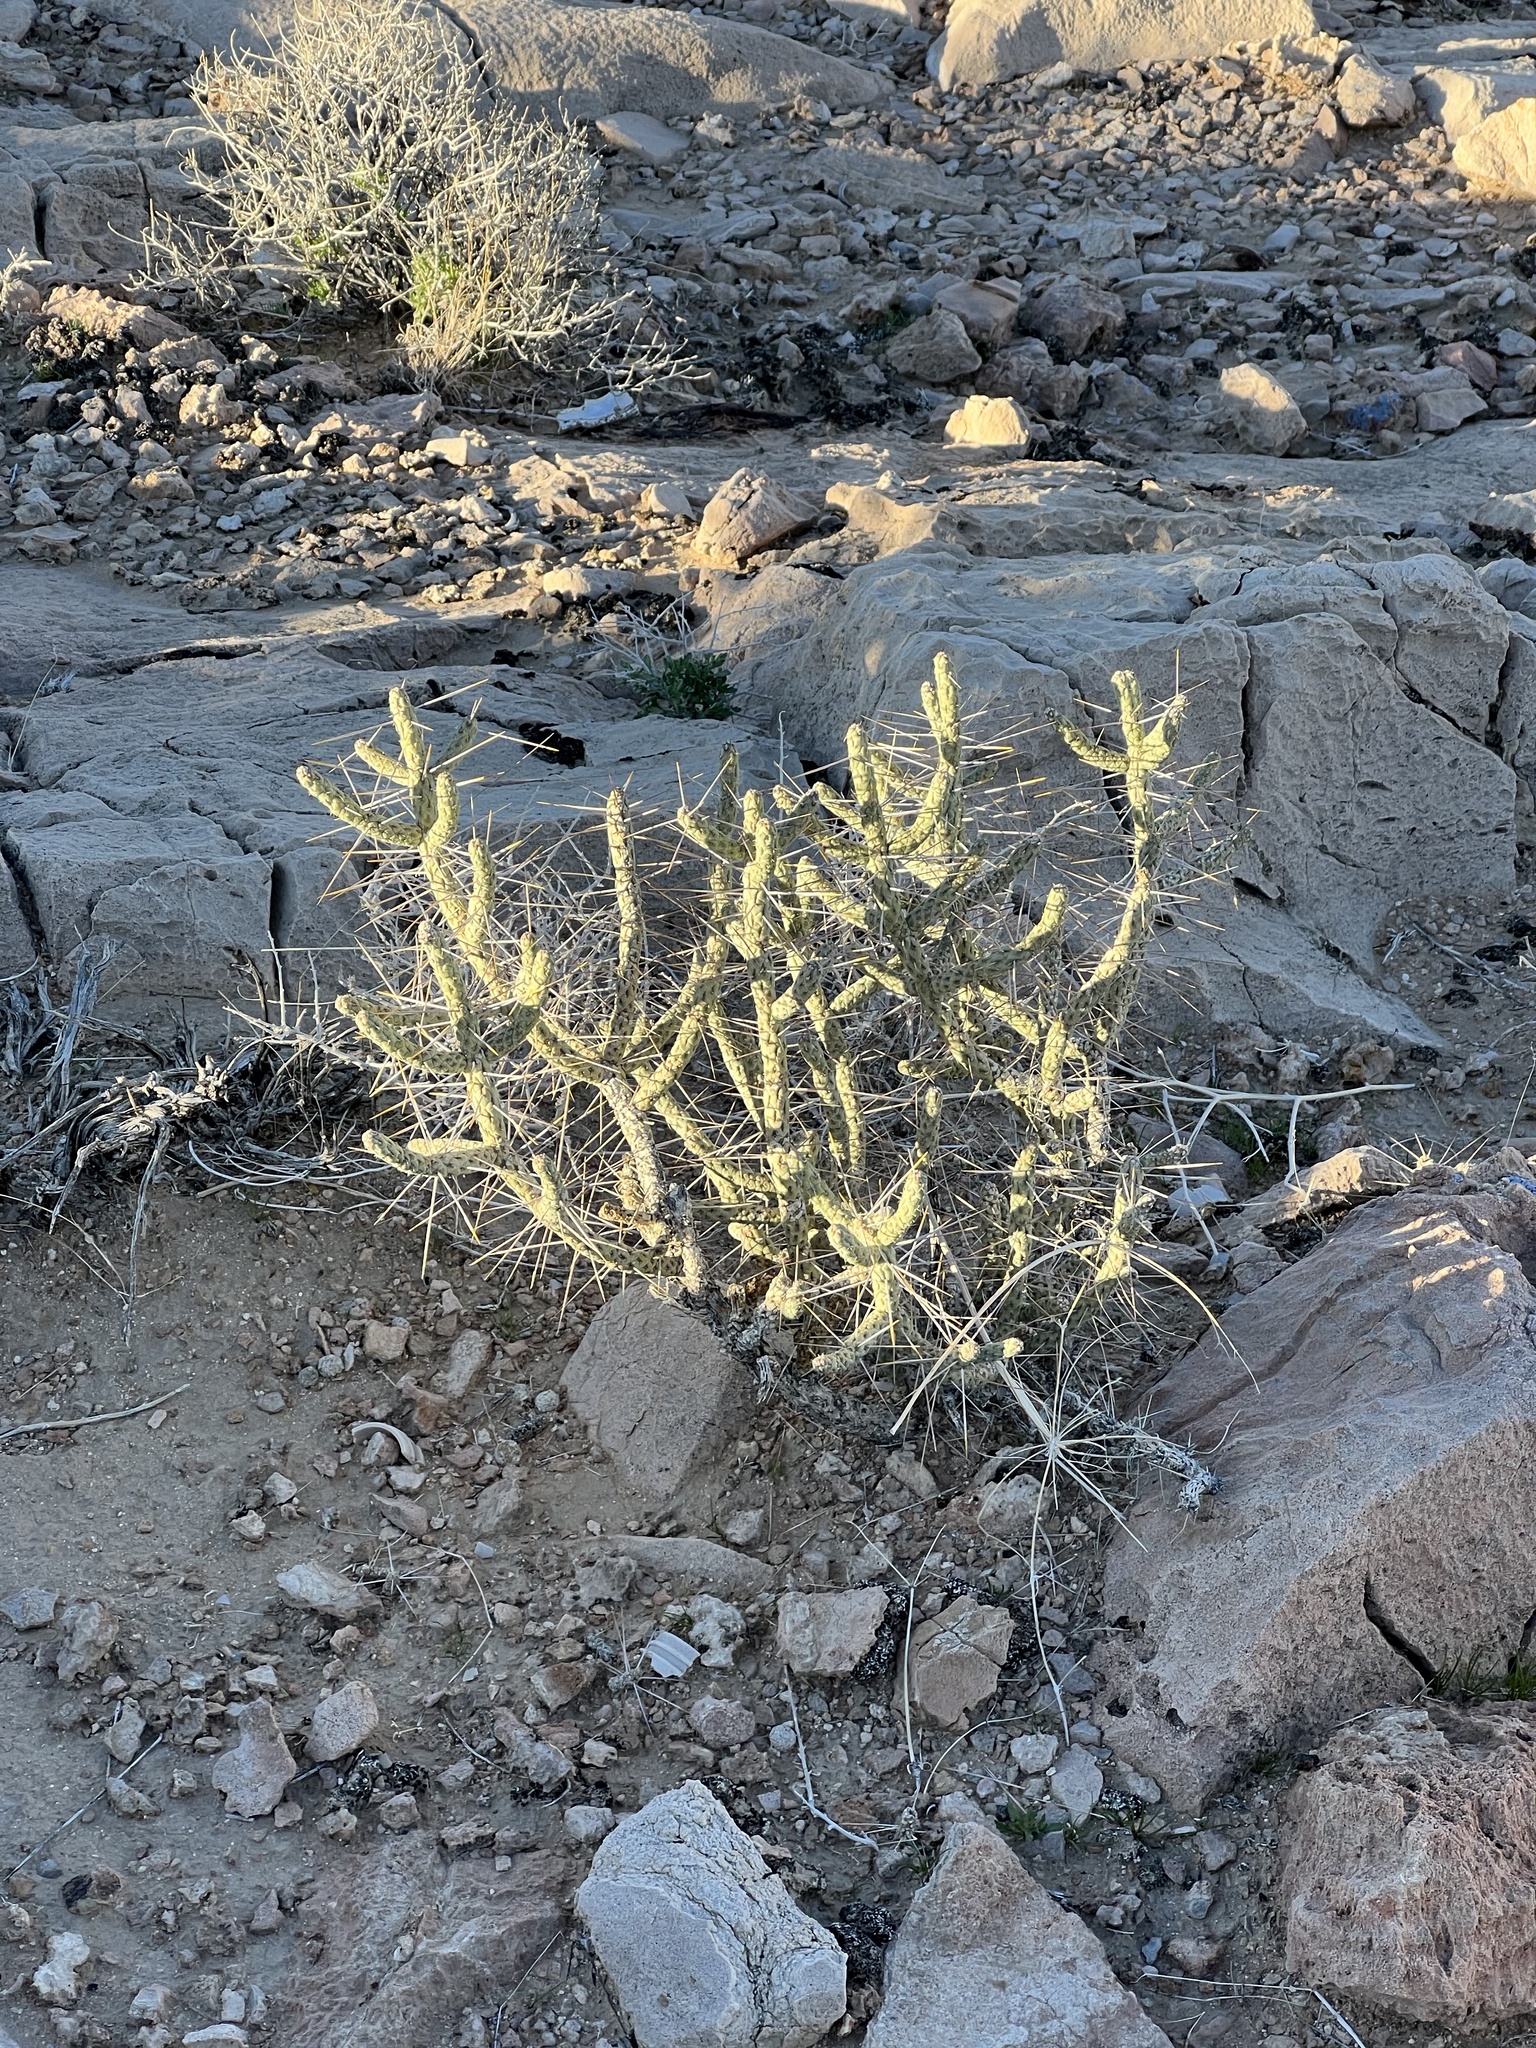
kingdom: Plantae
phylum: Tracheophyta
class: Magnoliopsida
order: Caryophyllales
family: Cactaceae
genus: Cylindropuntia
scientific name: Cylindropuntia ramosissima
